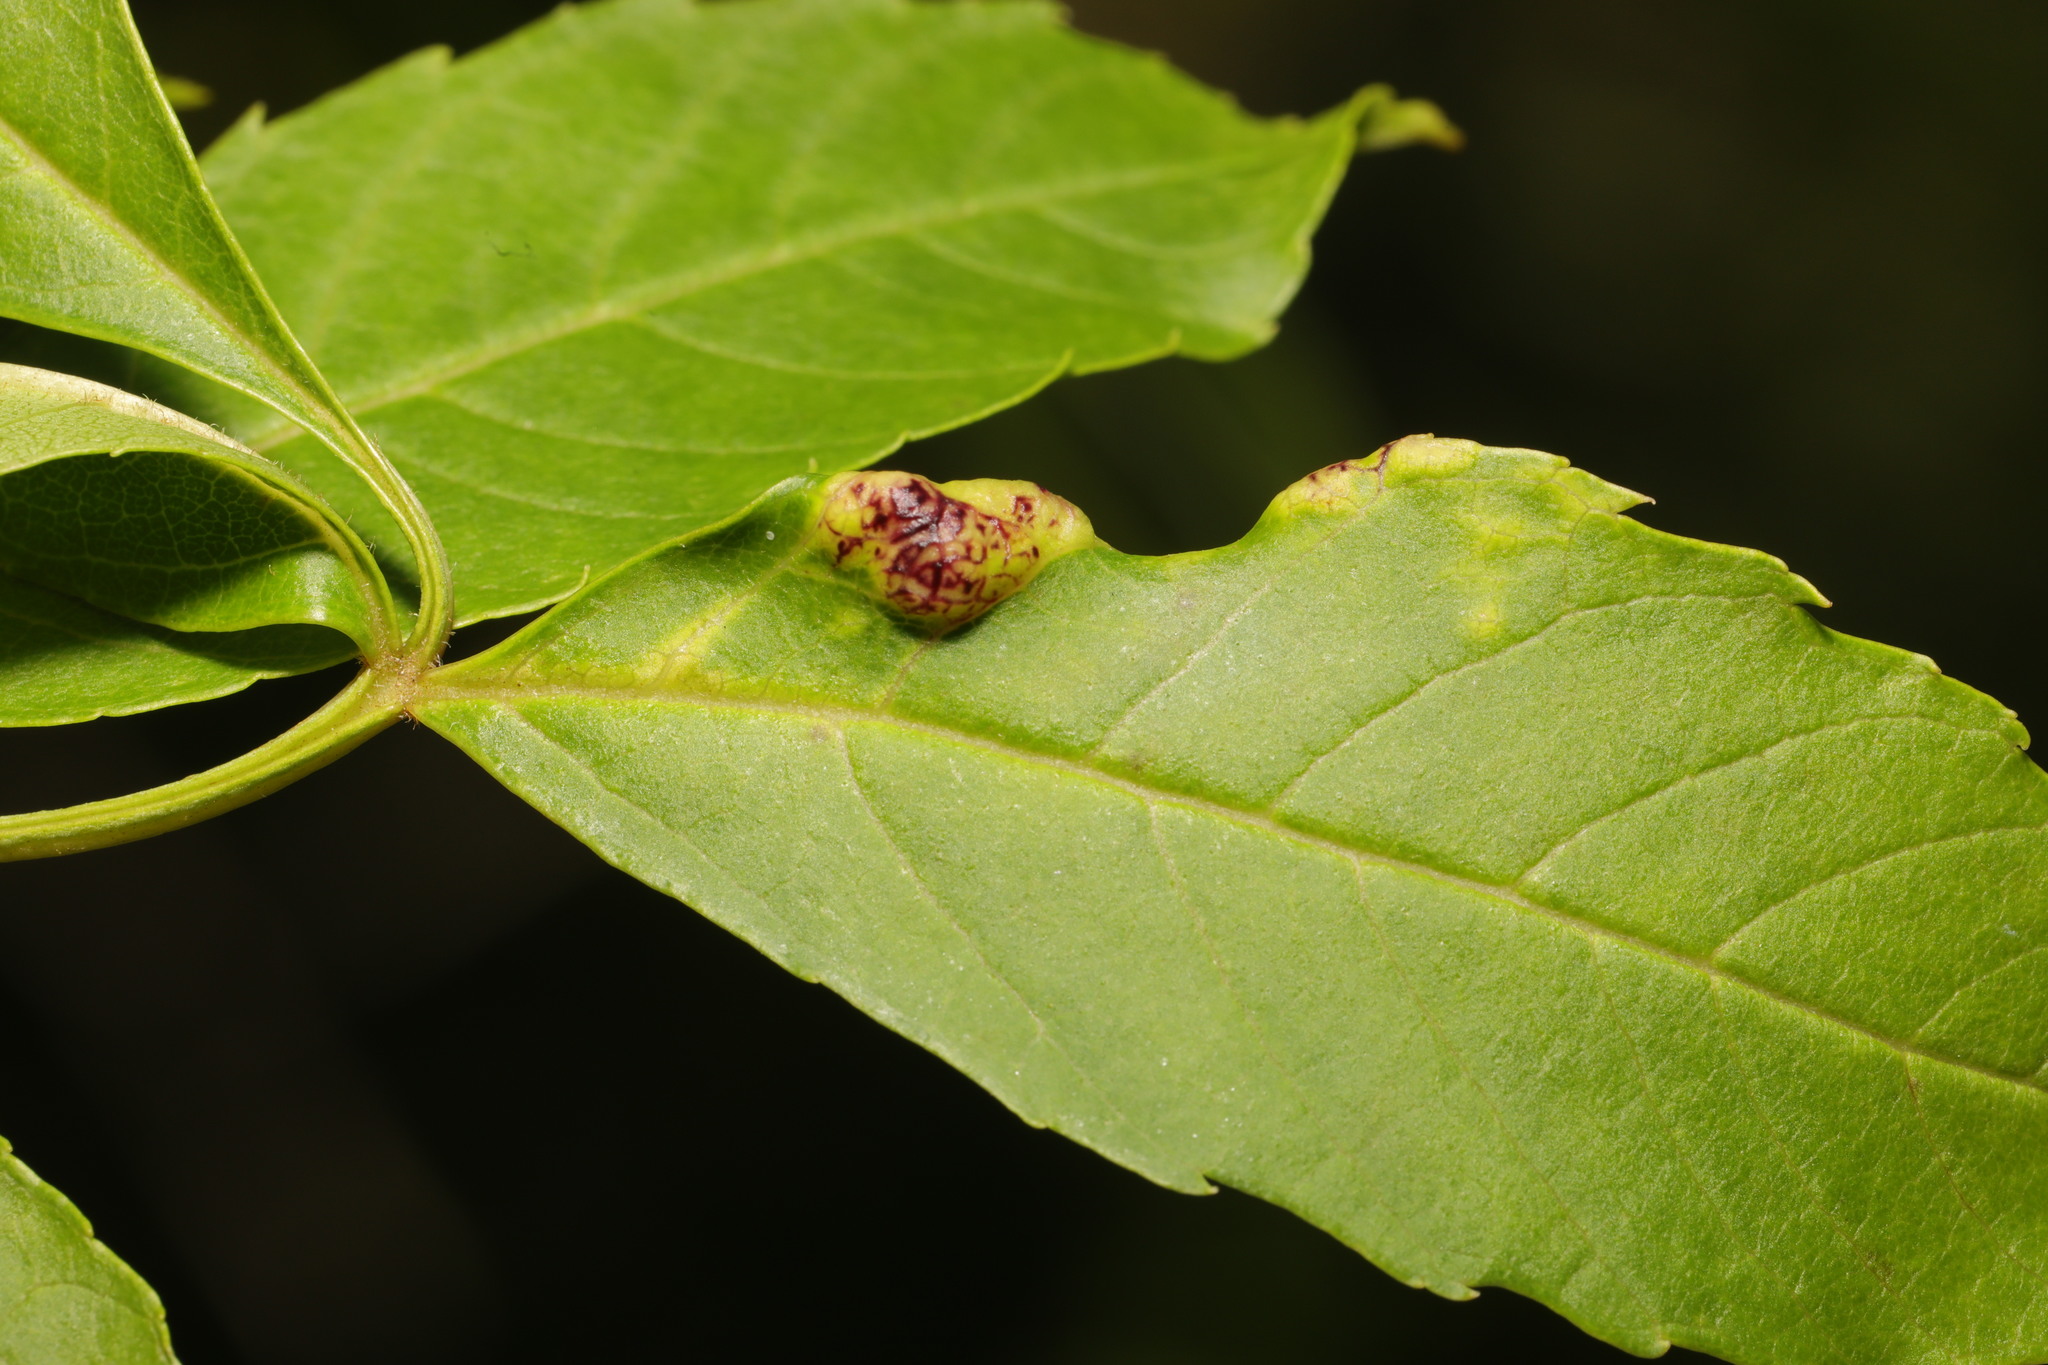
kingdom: Animalia
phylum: Arthropoda
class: Insecta
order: Hemiptera
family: Liviidae
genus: Psyllopsis
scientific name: Psyllopsis fraxini
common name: Jumping plant louse
